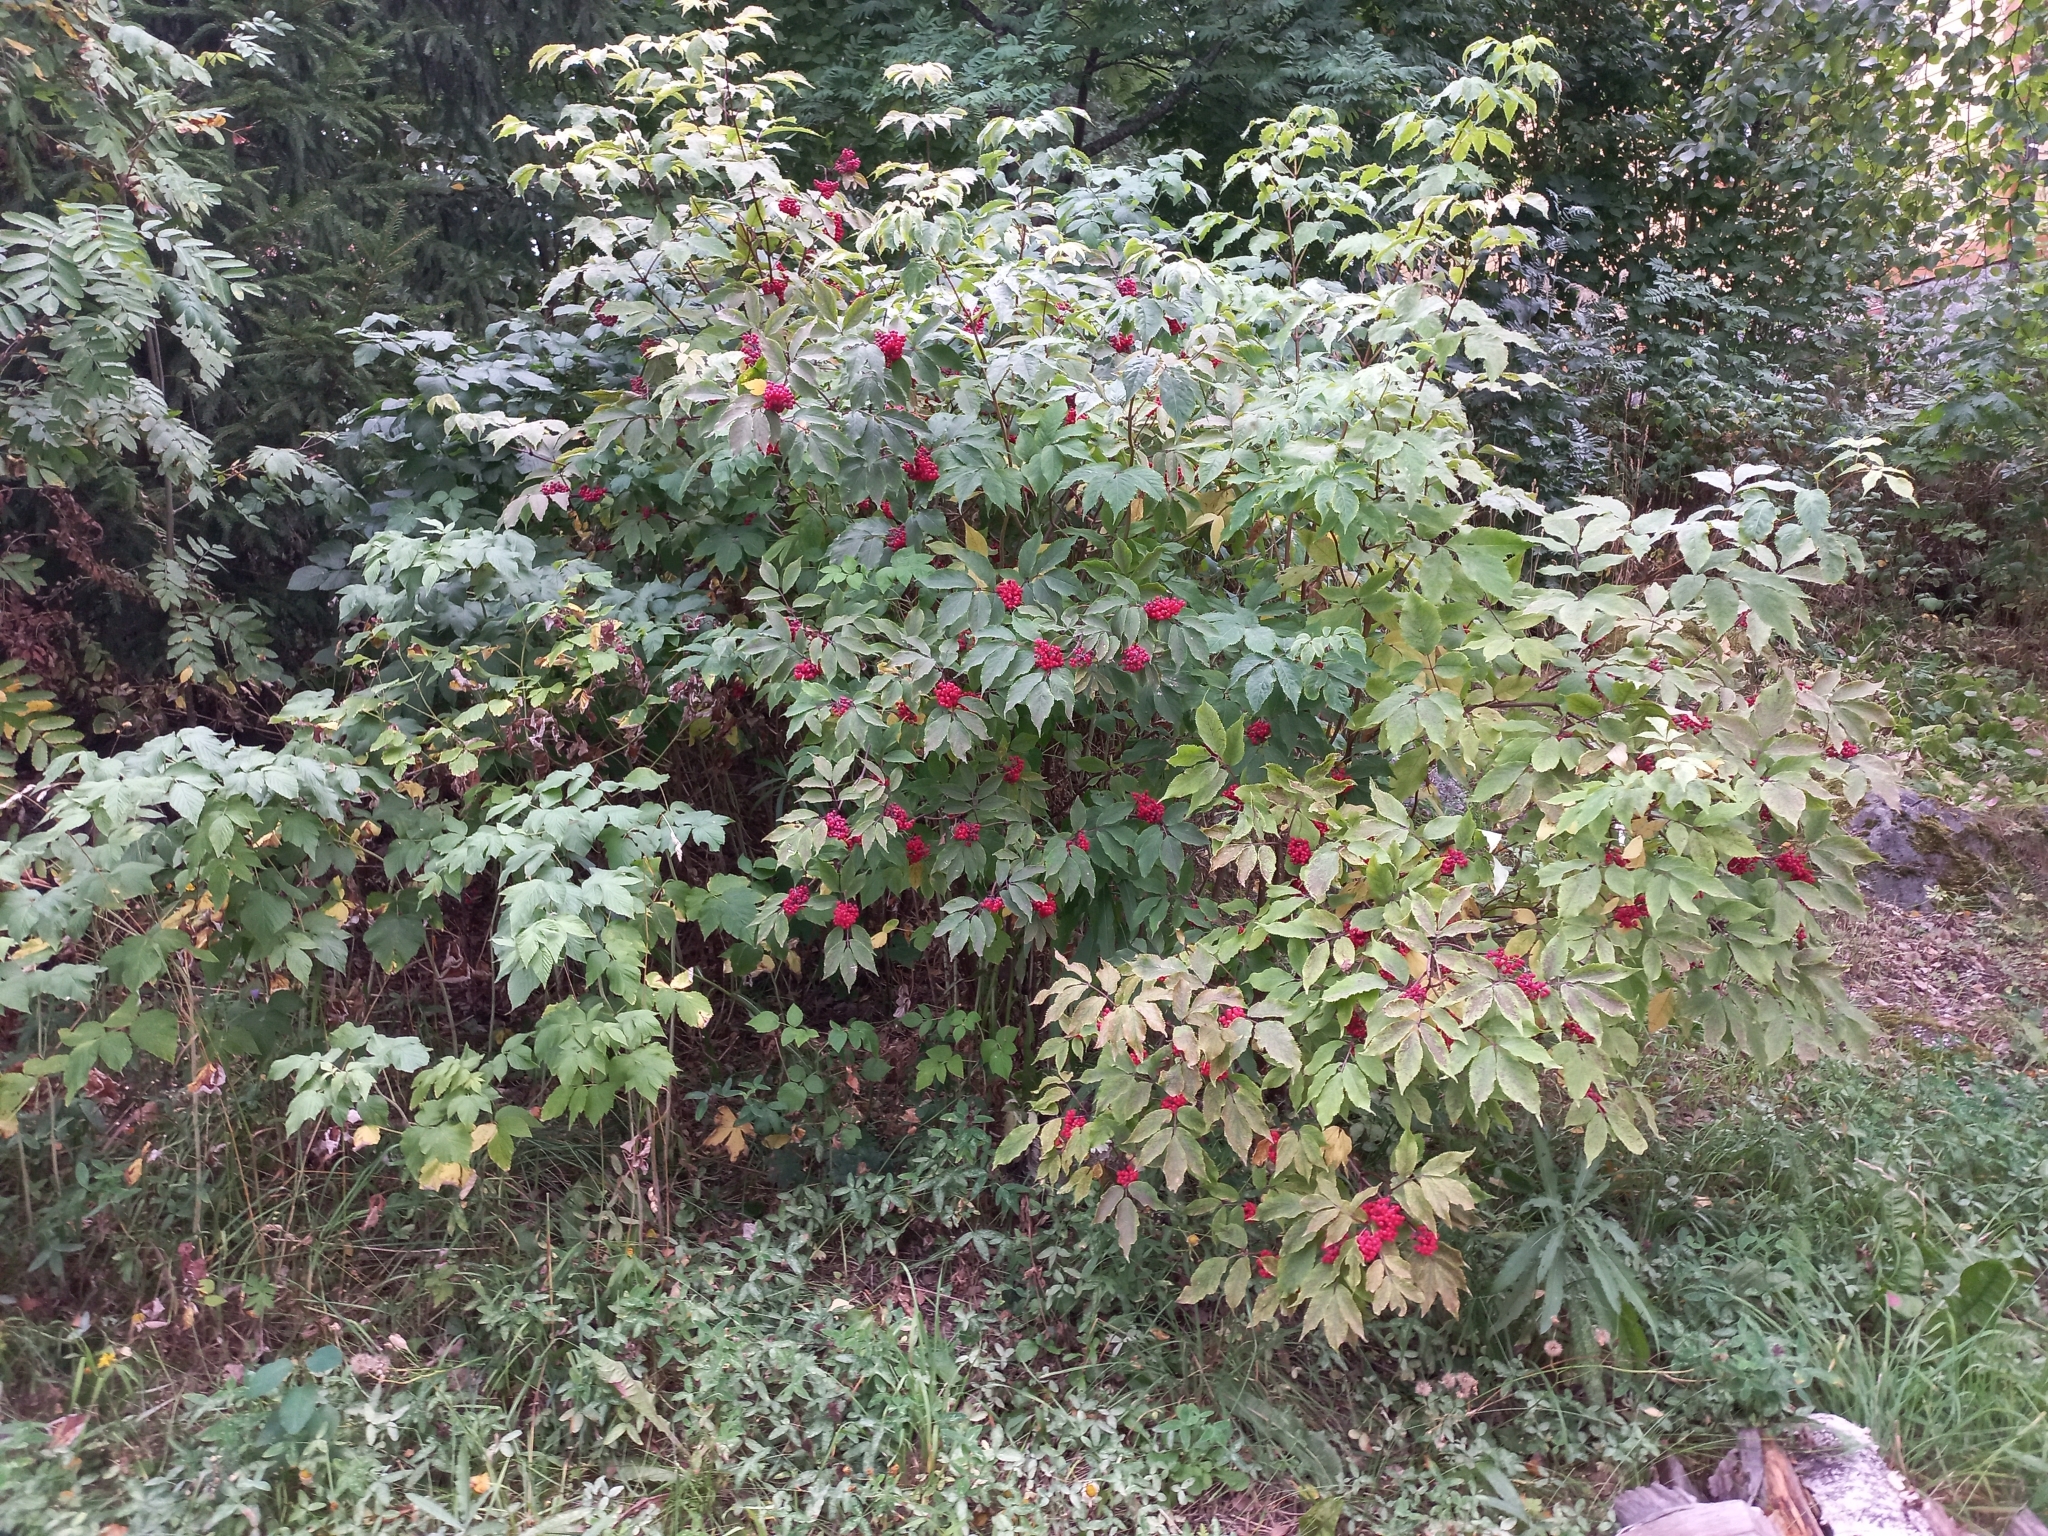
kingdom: Plantae
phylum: Tracheophyta
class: Magnoliopsida
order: Dipsacales
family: Viburnaceae
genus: Sambucus
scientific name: Sambucus racemosa
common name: Red-berried elder
